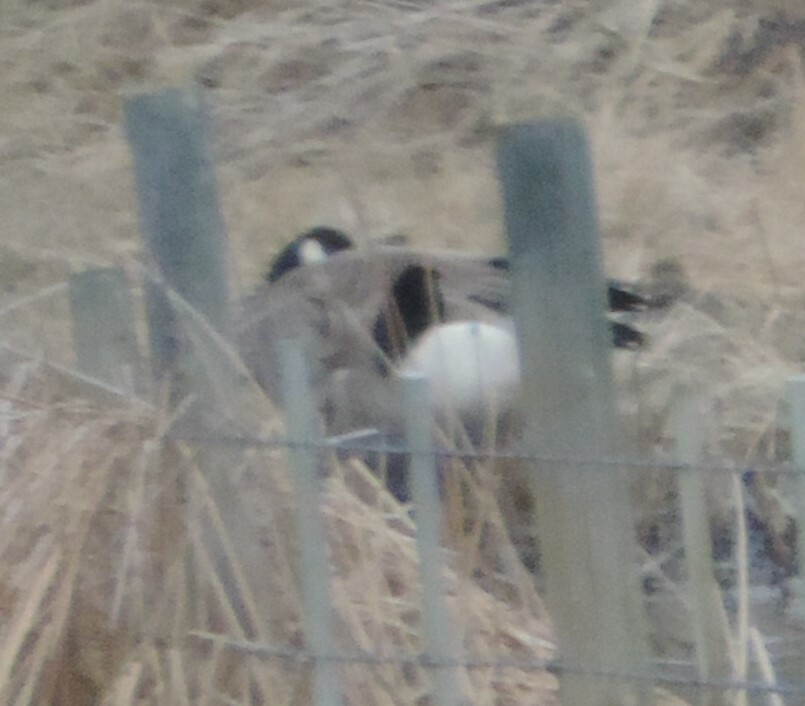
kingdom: Animalia
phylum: Chordata
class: Aves
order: Anseriformes
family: Anatidae
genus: Branta
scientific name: Branta canadensis
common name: Canada goose
